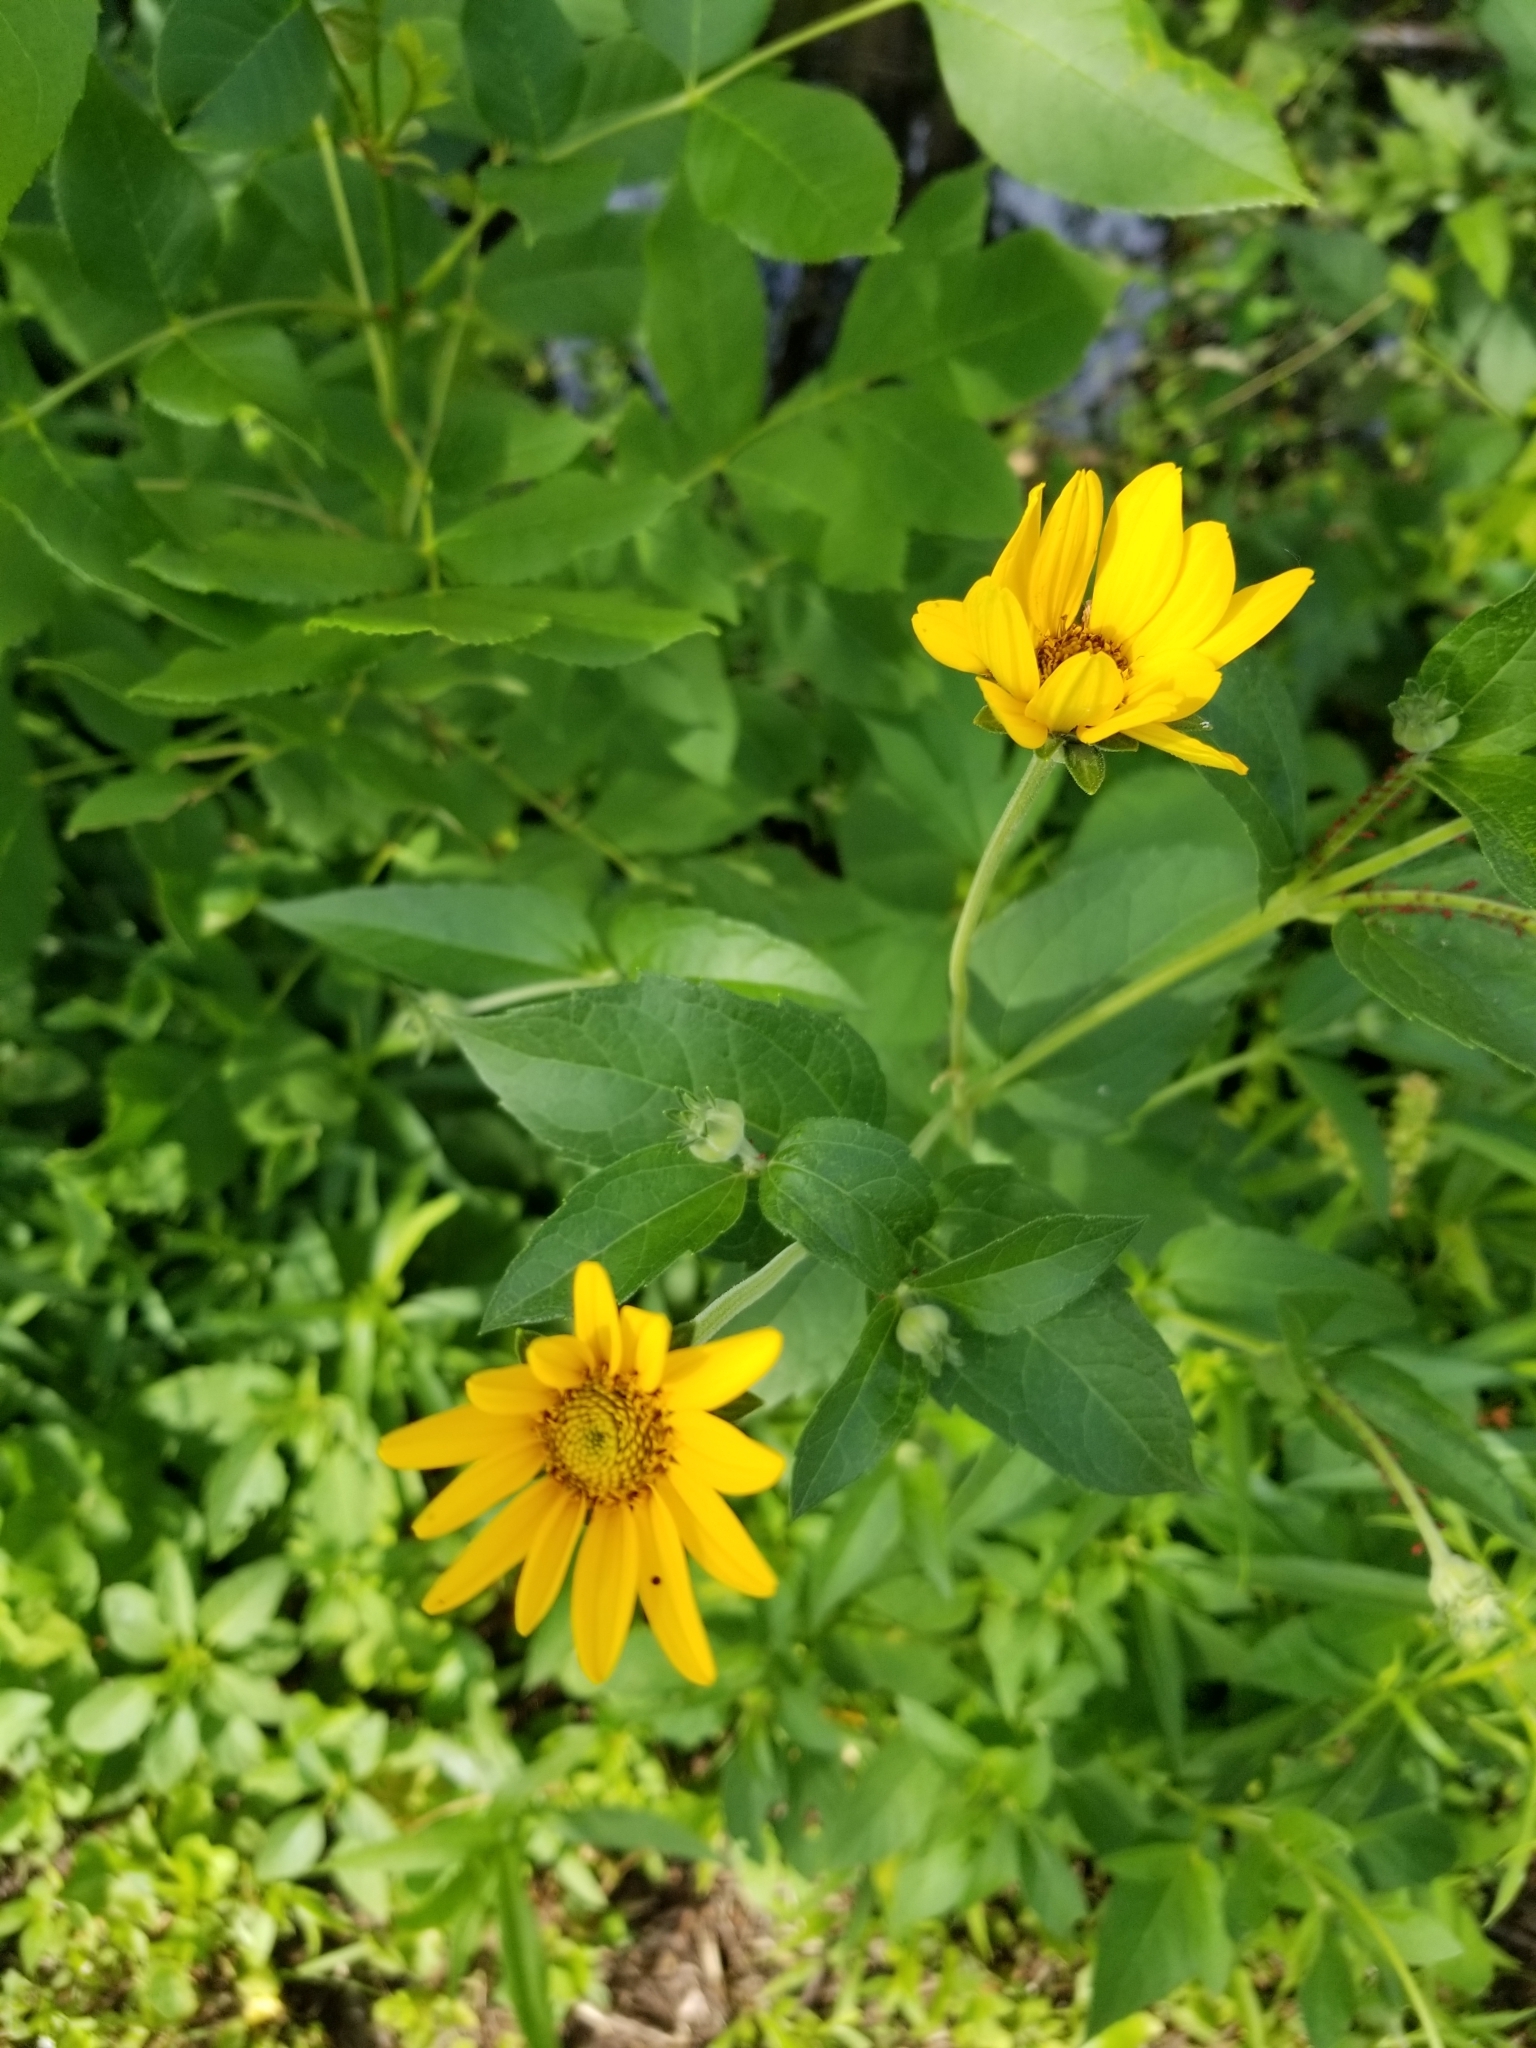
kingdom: Plantae
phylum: Tracheophyta
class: Magnoliopsida
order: Asterales
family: Asteraceae
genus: Heliopsis
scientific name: Heliopsis helianthoides
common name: False sunflower
